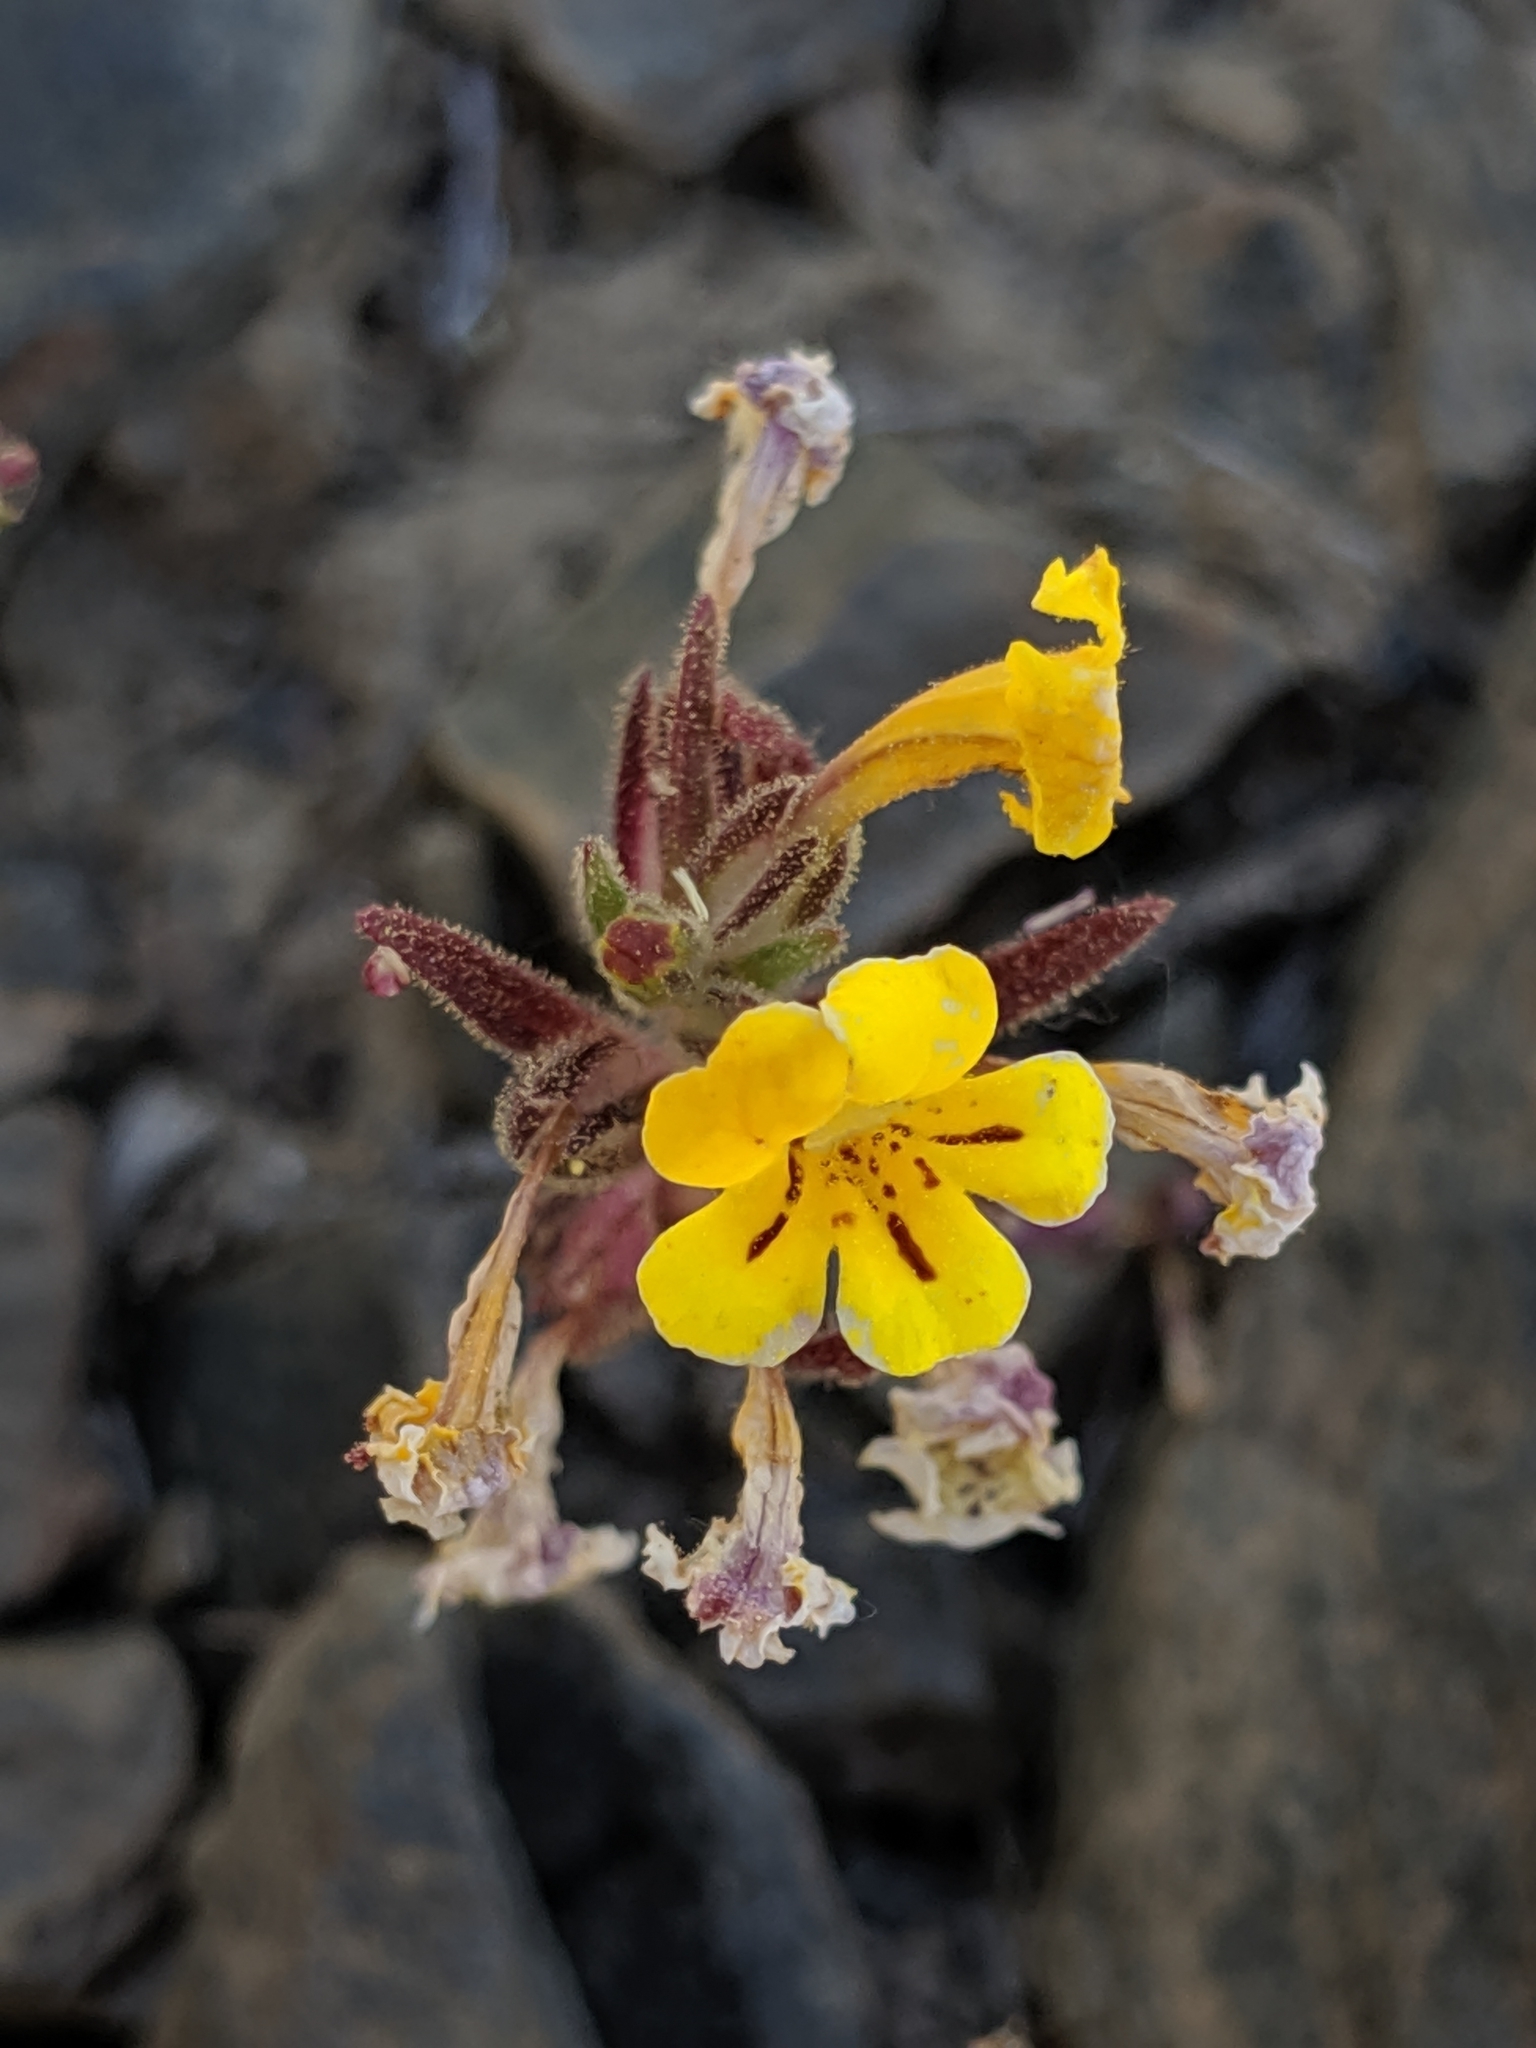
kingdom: Plantae
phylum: Tracheophyta
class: Magnoliopsida
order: Lamiales
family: Phrymaceae
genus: Diplacus
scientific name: Diplacus mephiticus
